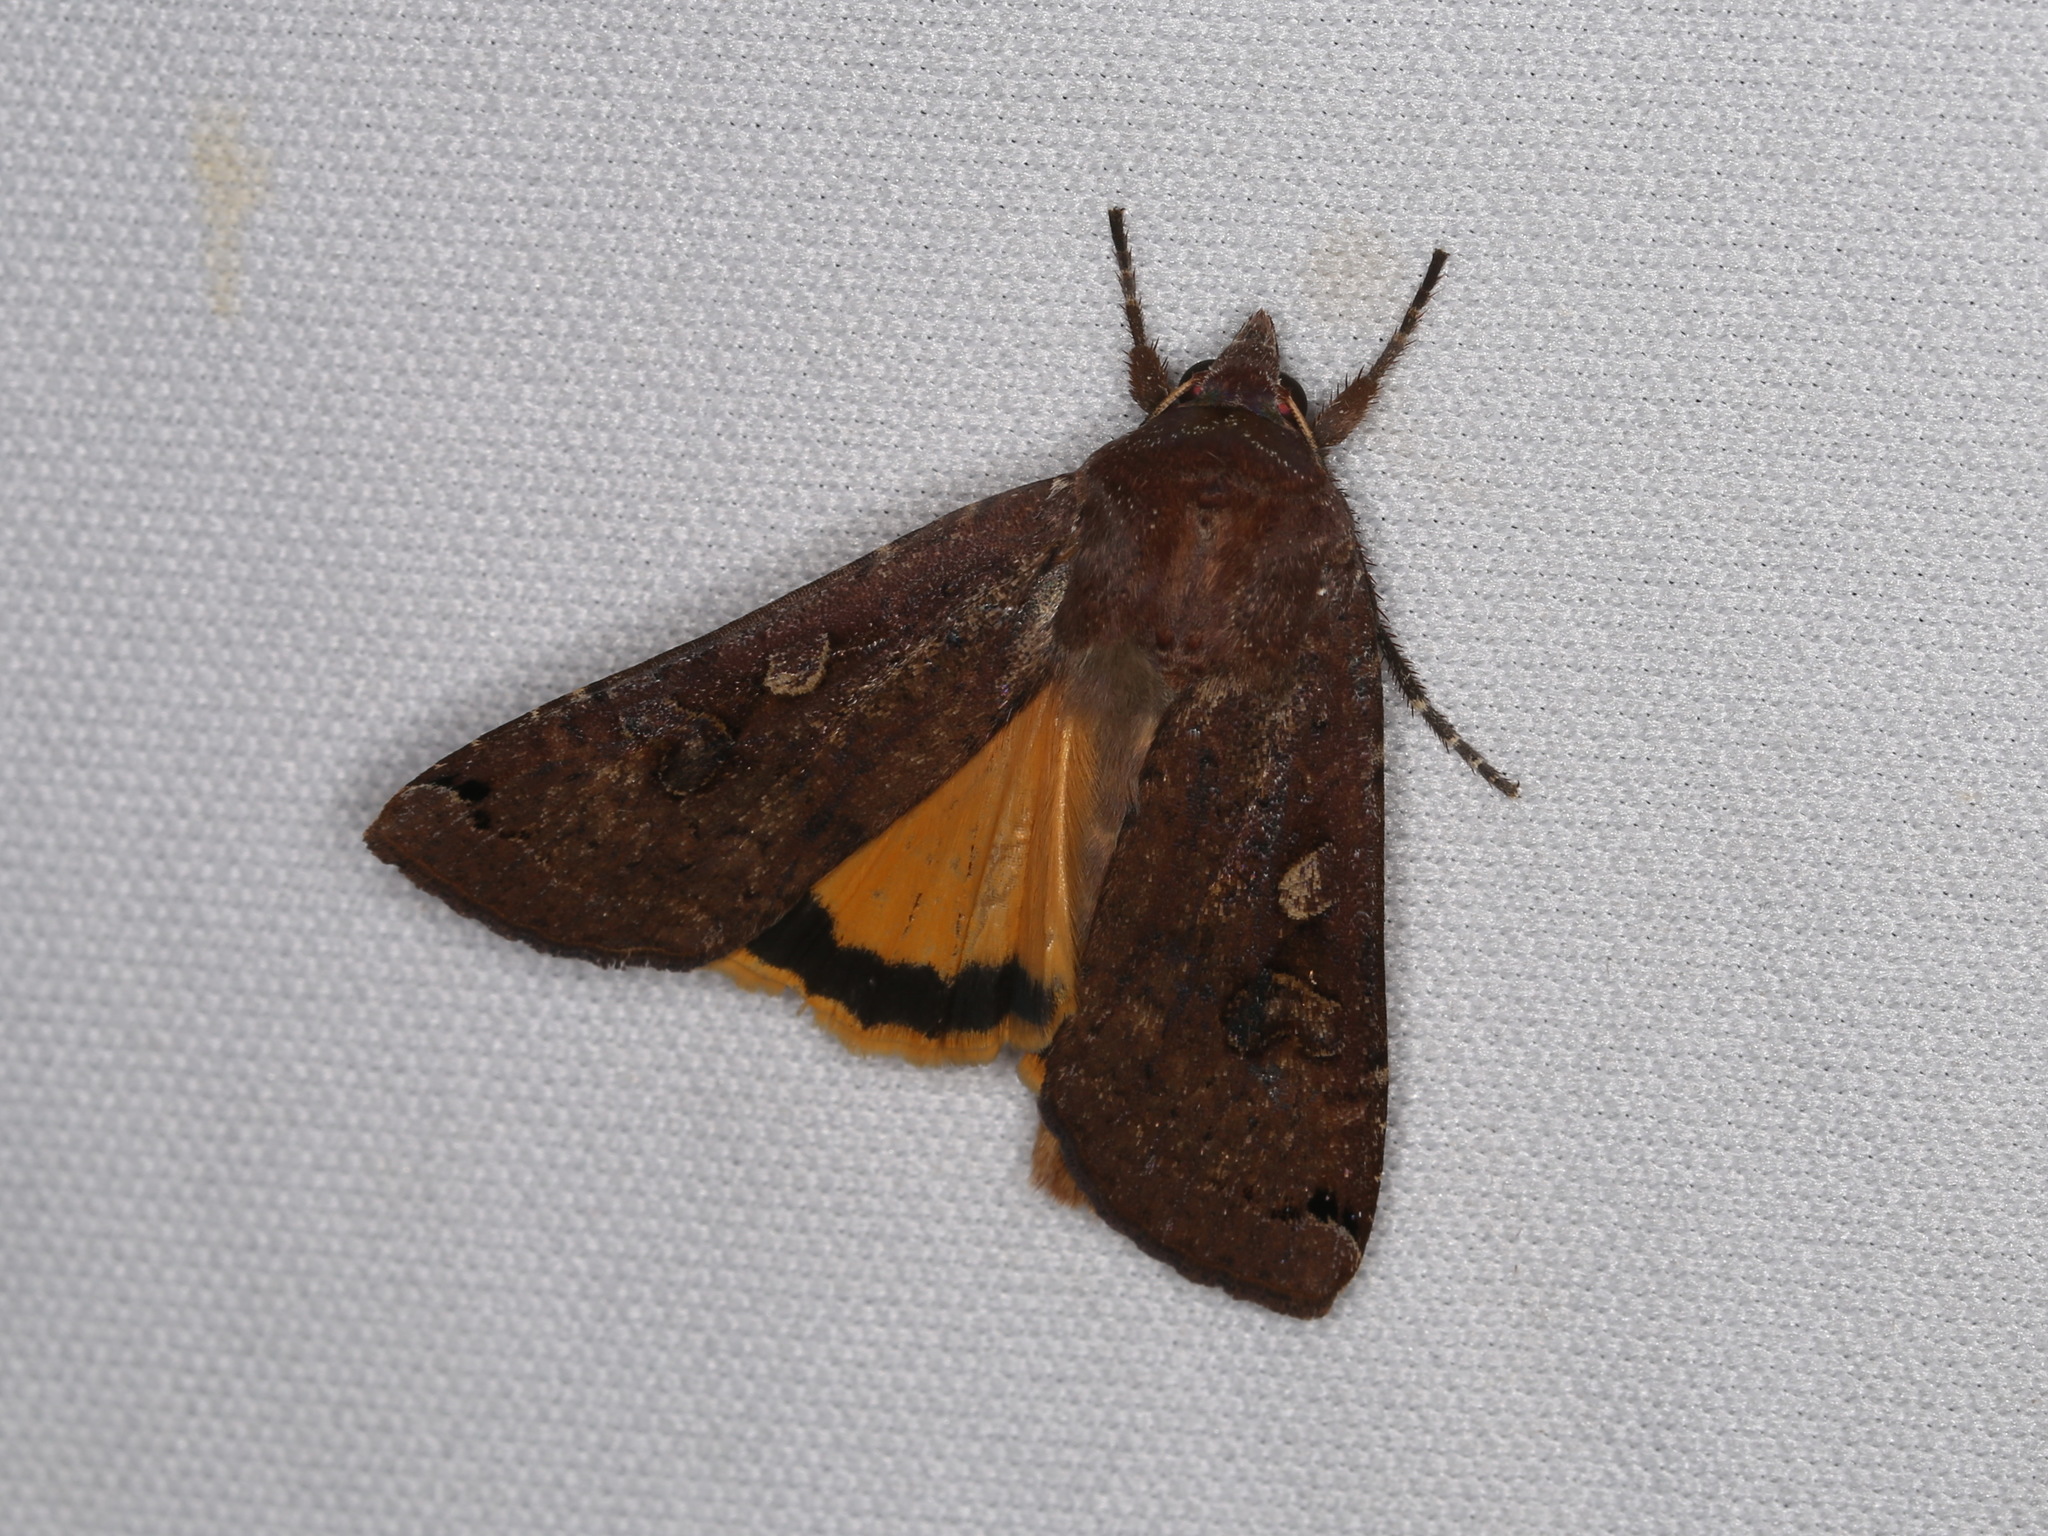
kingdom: Animalia
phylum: Arthropoda
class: Insecta
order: Lepidoptera
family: Noctuidae
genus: Noctua
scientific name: Noctua pronuba
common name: Large yellow underwing
